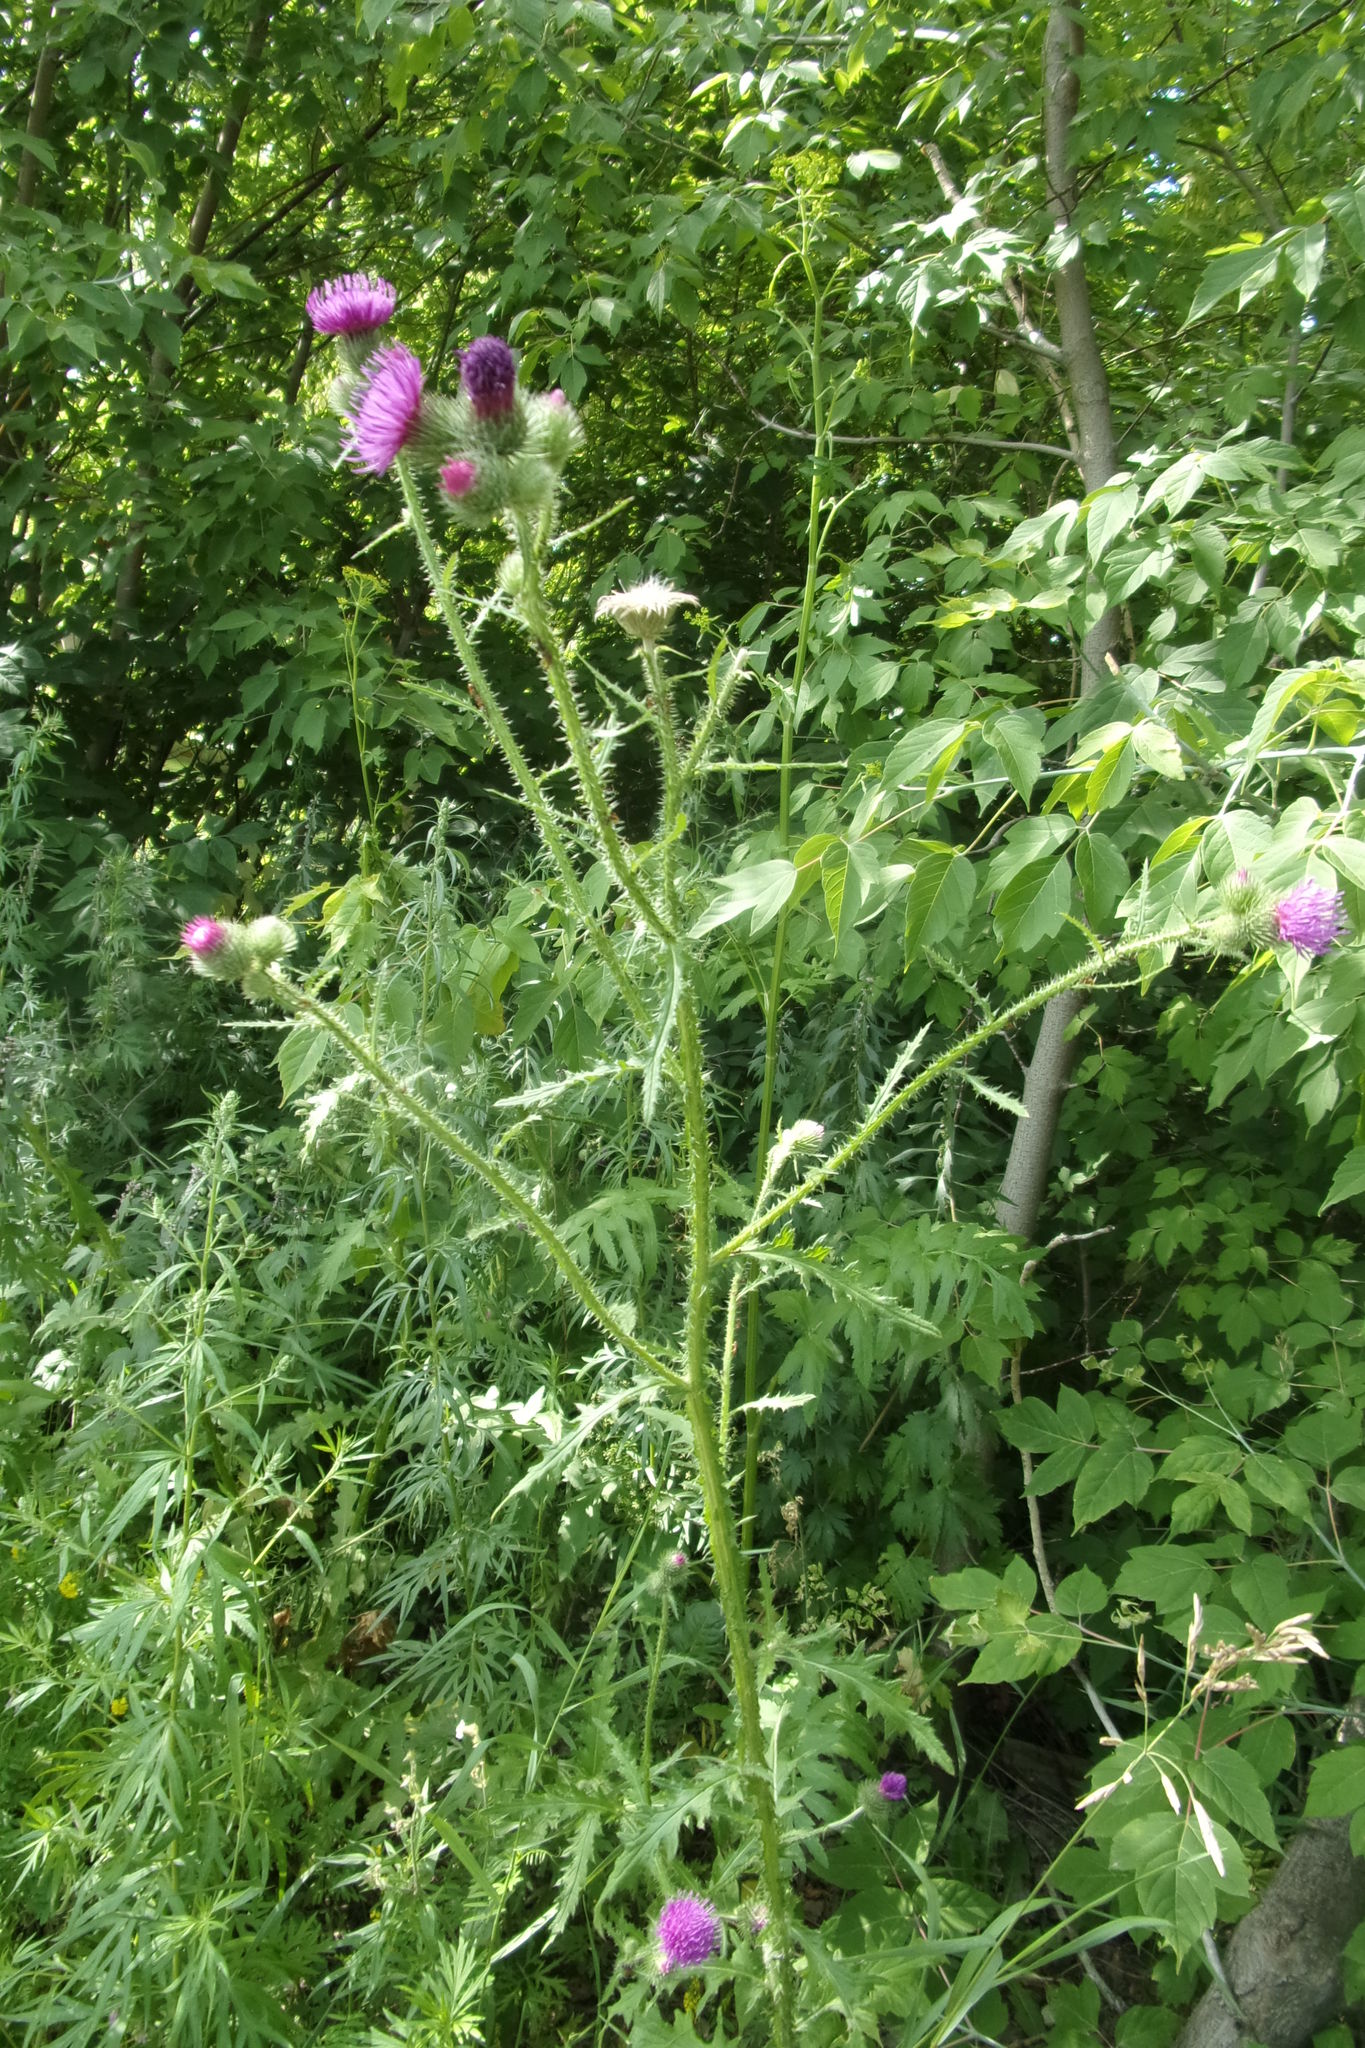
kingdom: Plantae
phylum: Tracheophyta
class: Magnoliopsida
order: Asterales
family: Asteraceae
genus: Carduus
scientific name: Carduus crispus
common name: Welted thistle
